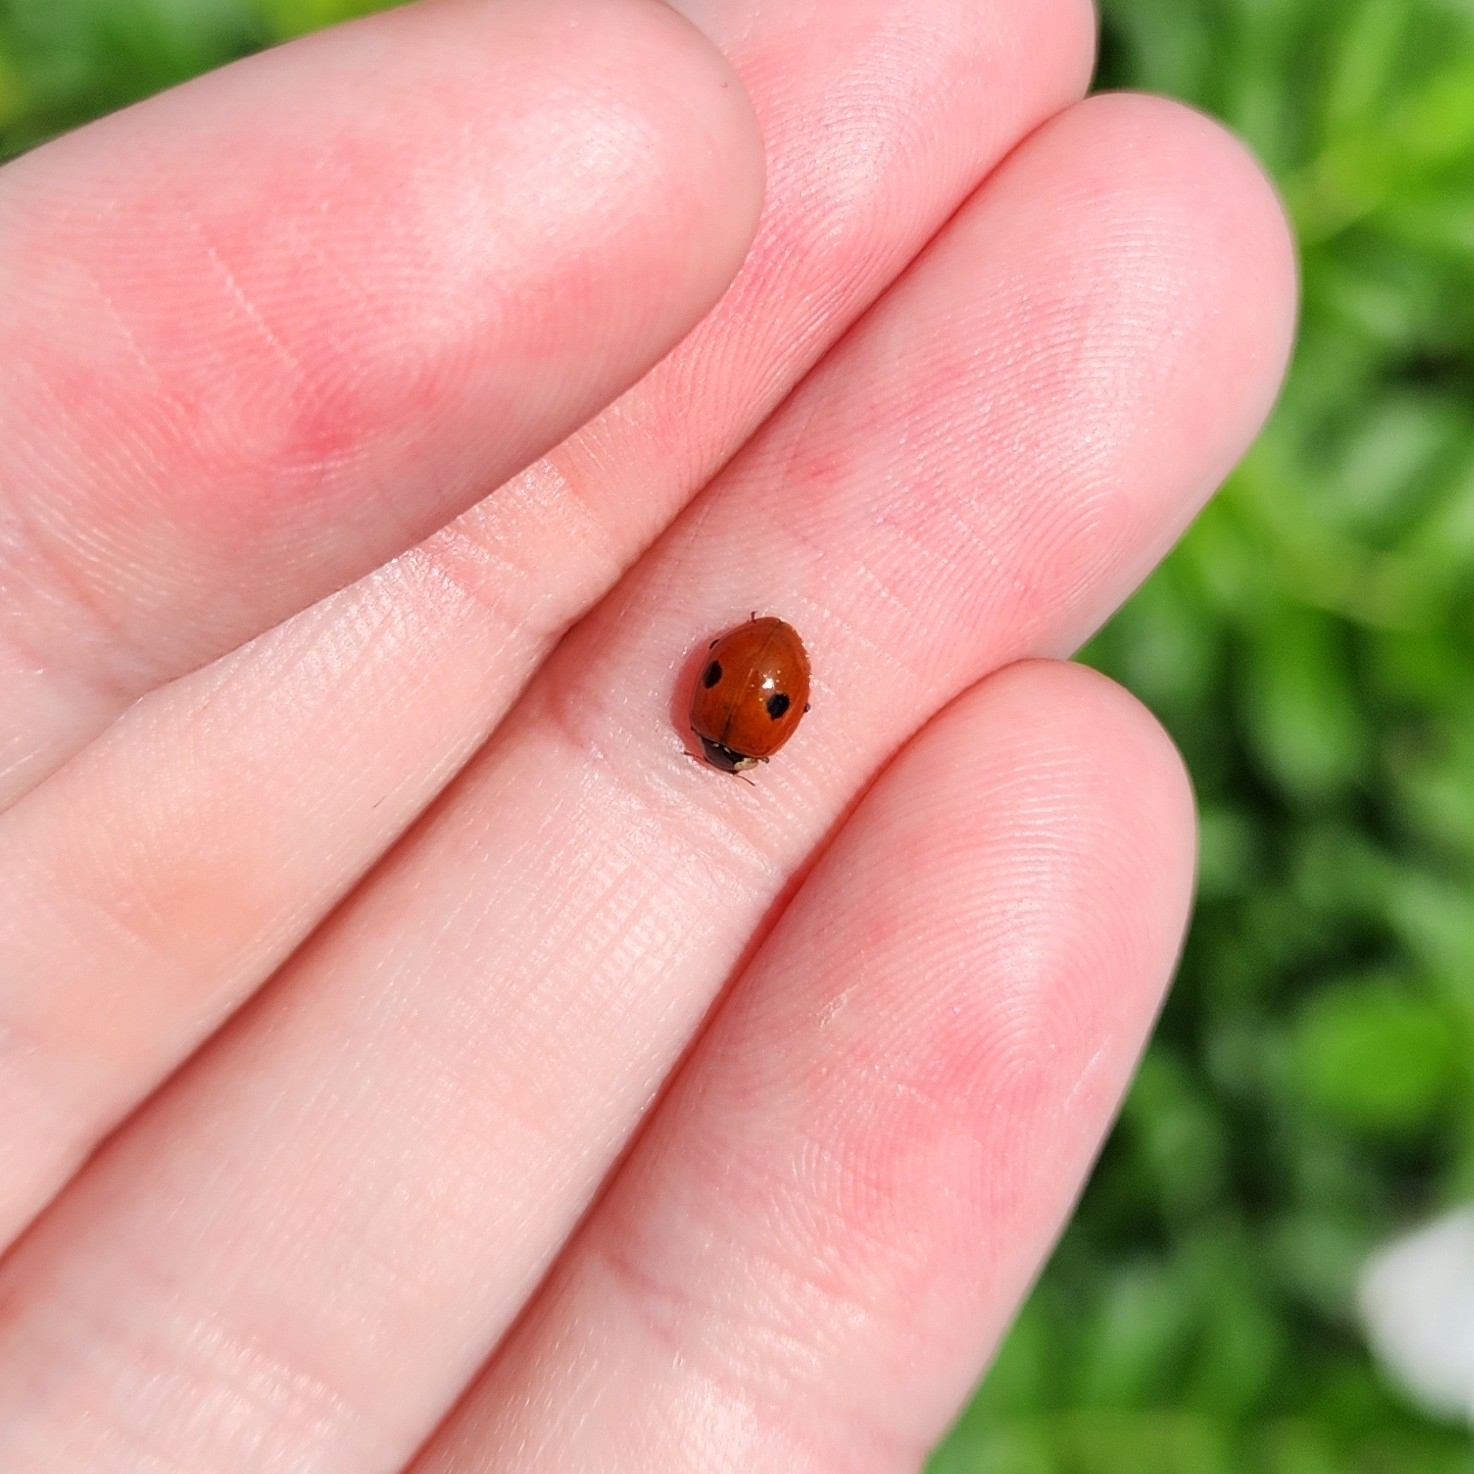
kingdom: Animalia
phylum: Arthropoda
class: Insecta
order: Coleoptera
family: Coccinellidae
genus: Adalia
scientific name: Adalia bipunctata
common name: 2-spot ladybird
